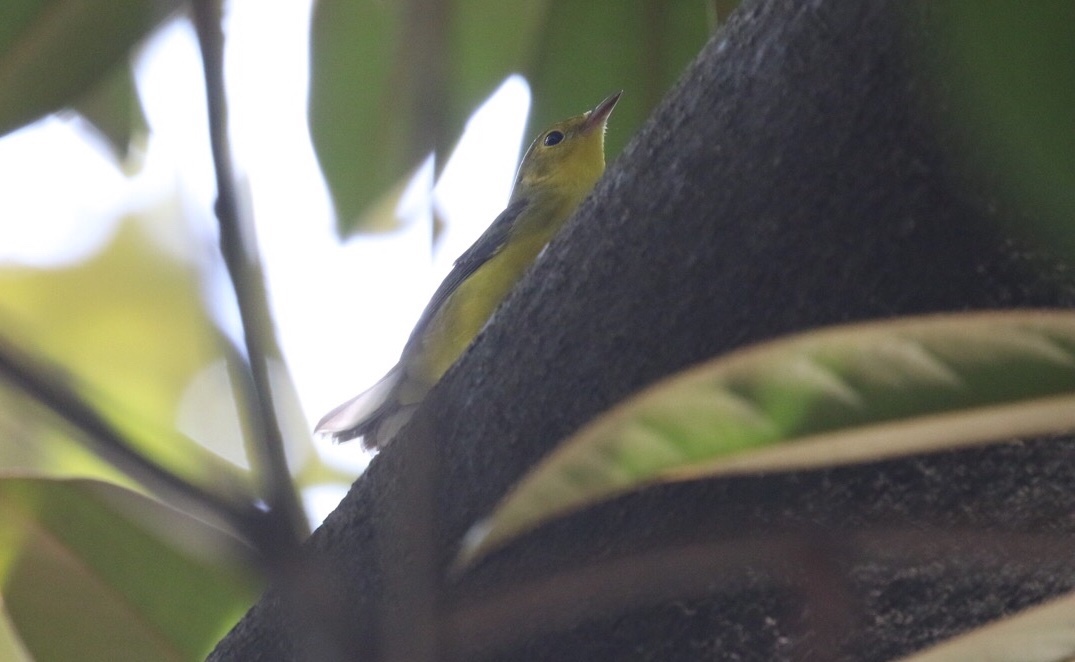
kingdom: Animalia
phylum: Chordata
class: Aves
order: Passeriformes
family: Parulidae
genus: Setophaga
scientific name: Setophaga citrina
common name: Hooded warbler
